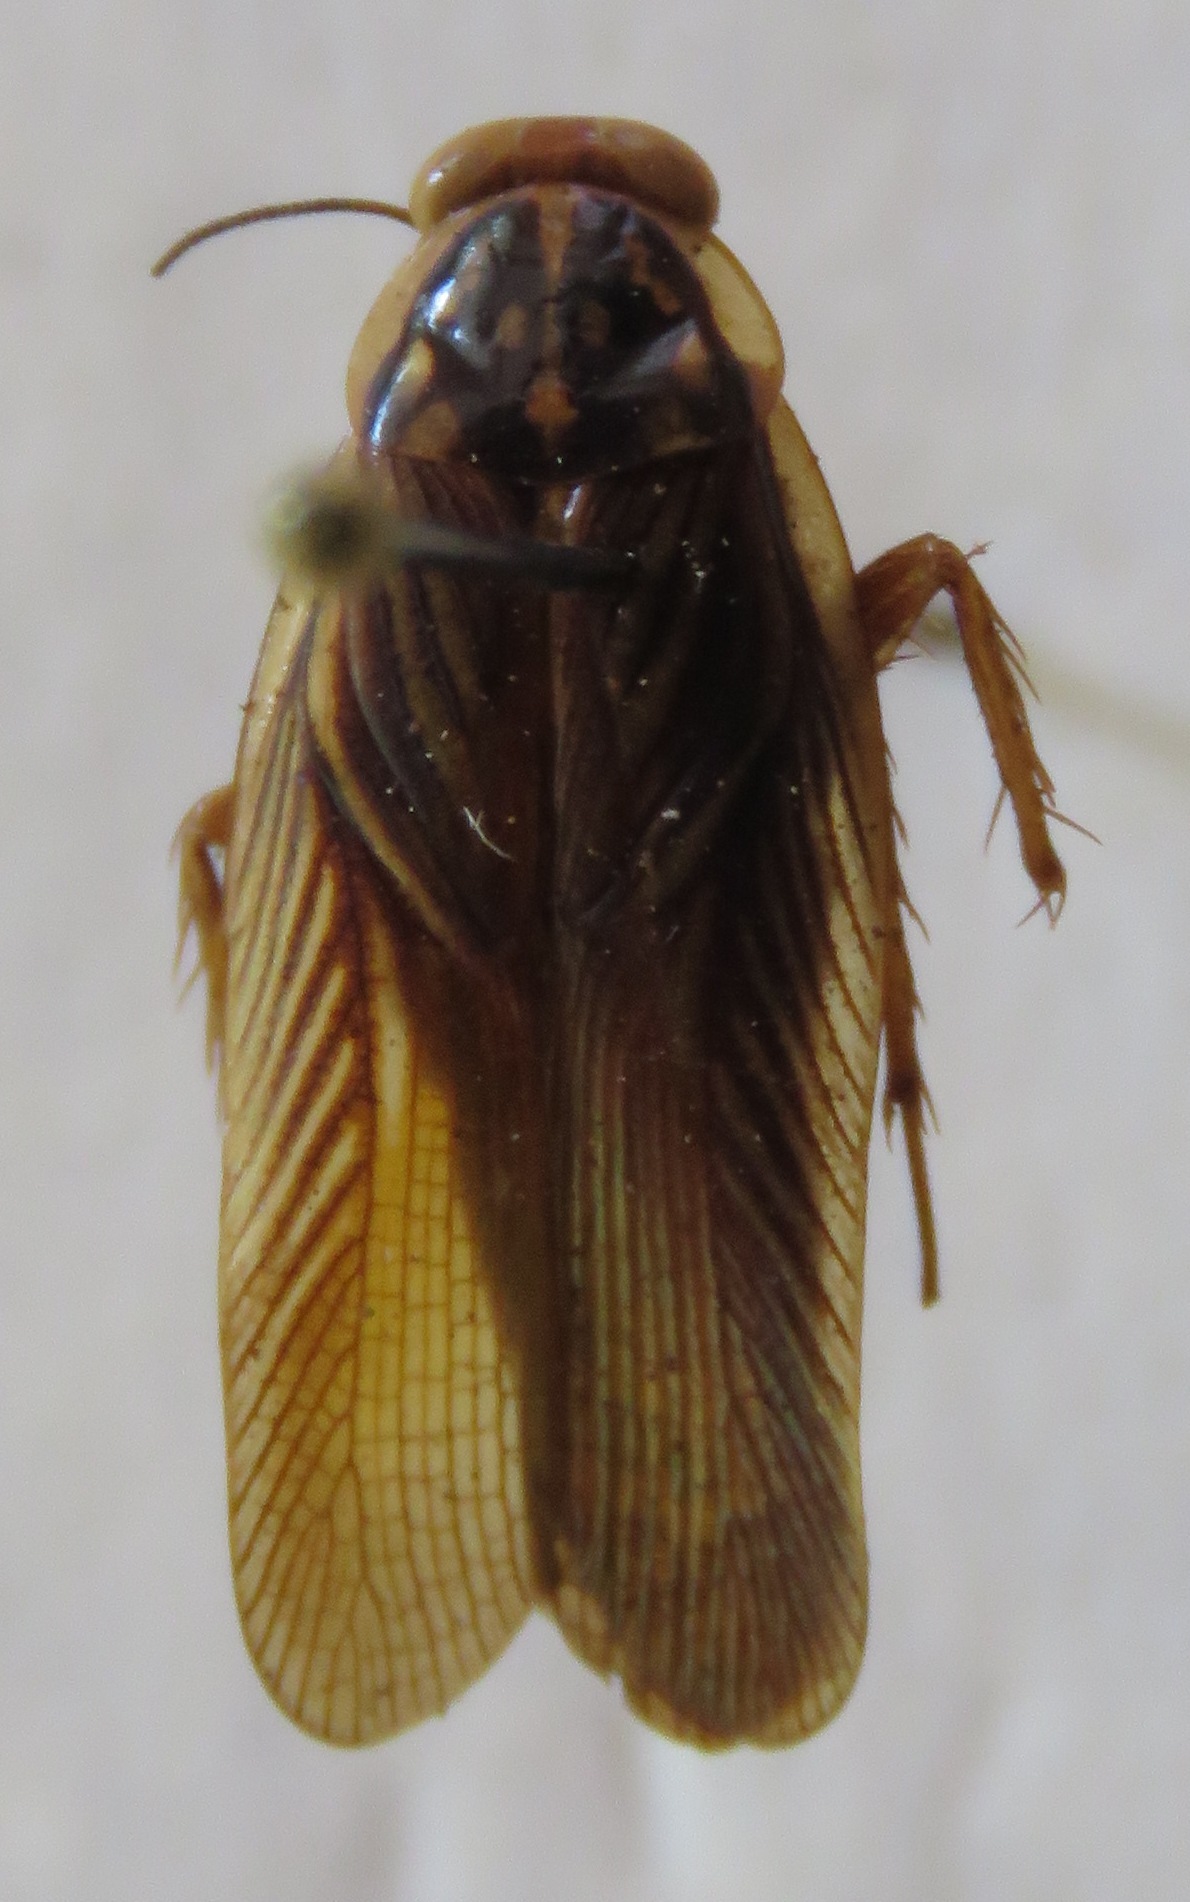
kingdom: Animalia
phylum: Arthropoda
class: Insecta
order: Blattodea
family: Ectobiidae
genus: Euphyllodromia
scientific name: Euphyllodromia angustata
